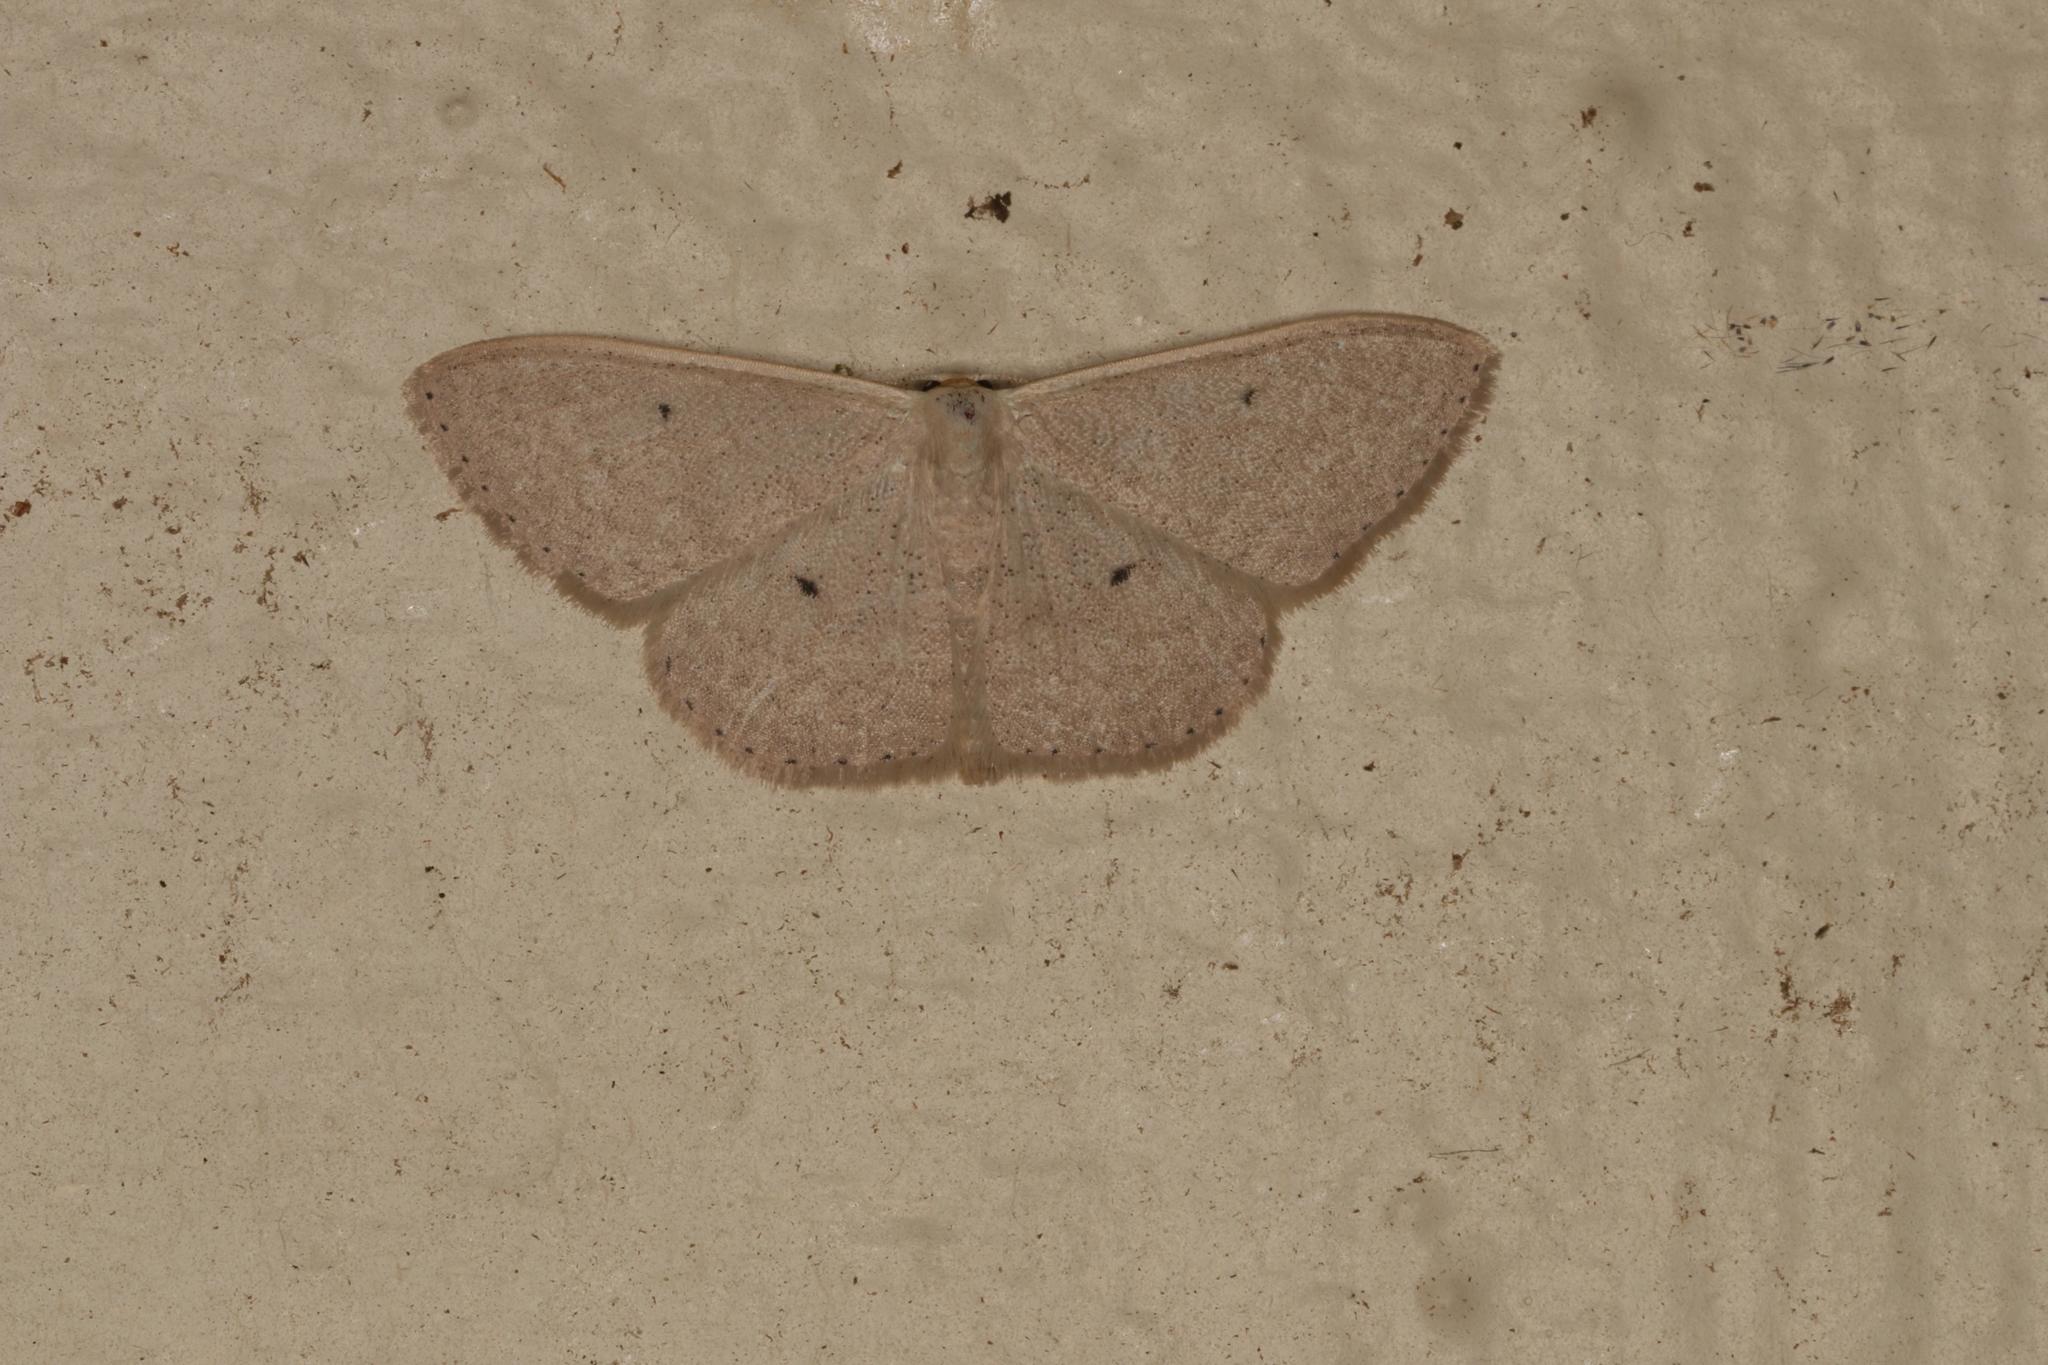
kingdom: Animalia
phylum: Arthropoda
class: Insecta
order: Lepidoptera
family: Geometridae
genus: Scopula
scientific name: Scopula optivata
